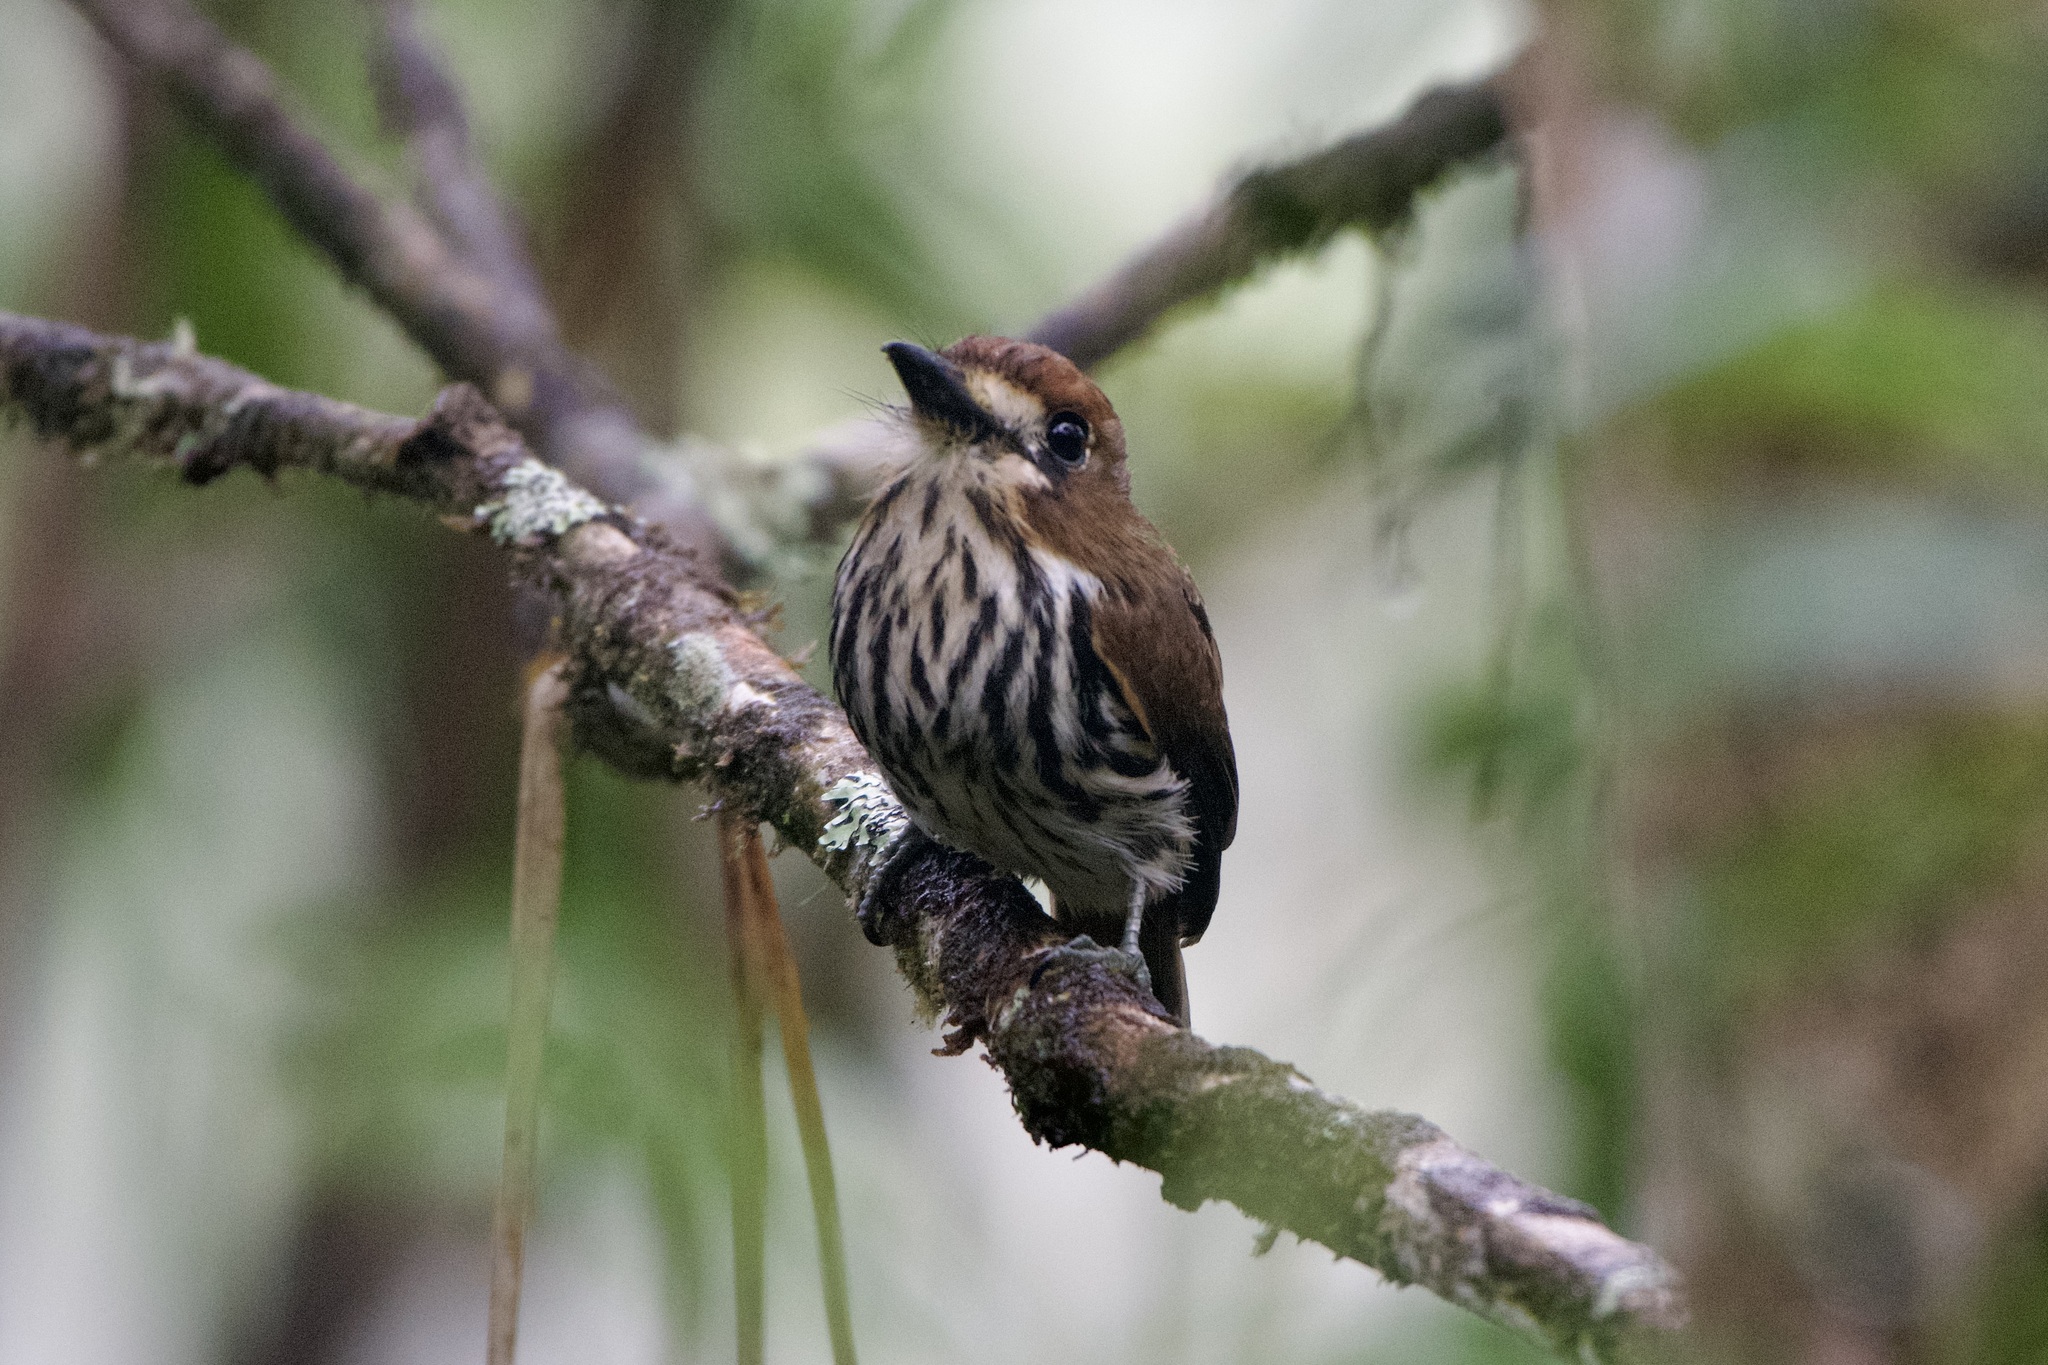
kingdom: Animalia
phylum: Chordata
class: Aves
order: Piciformes
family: Bucconidae
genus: Micromonacha
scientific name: Micromonacha lanceolata
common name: Lanceolated monklet
